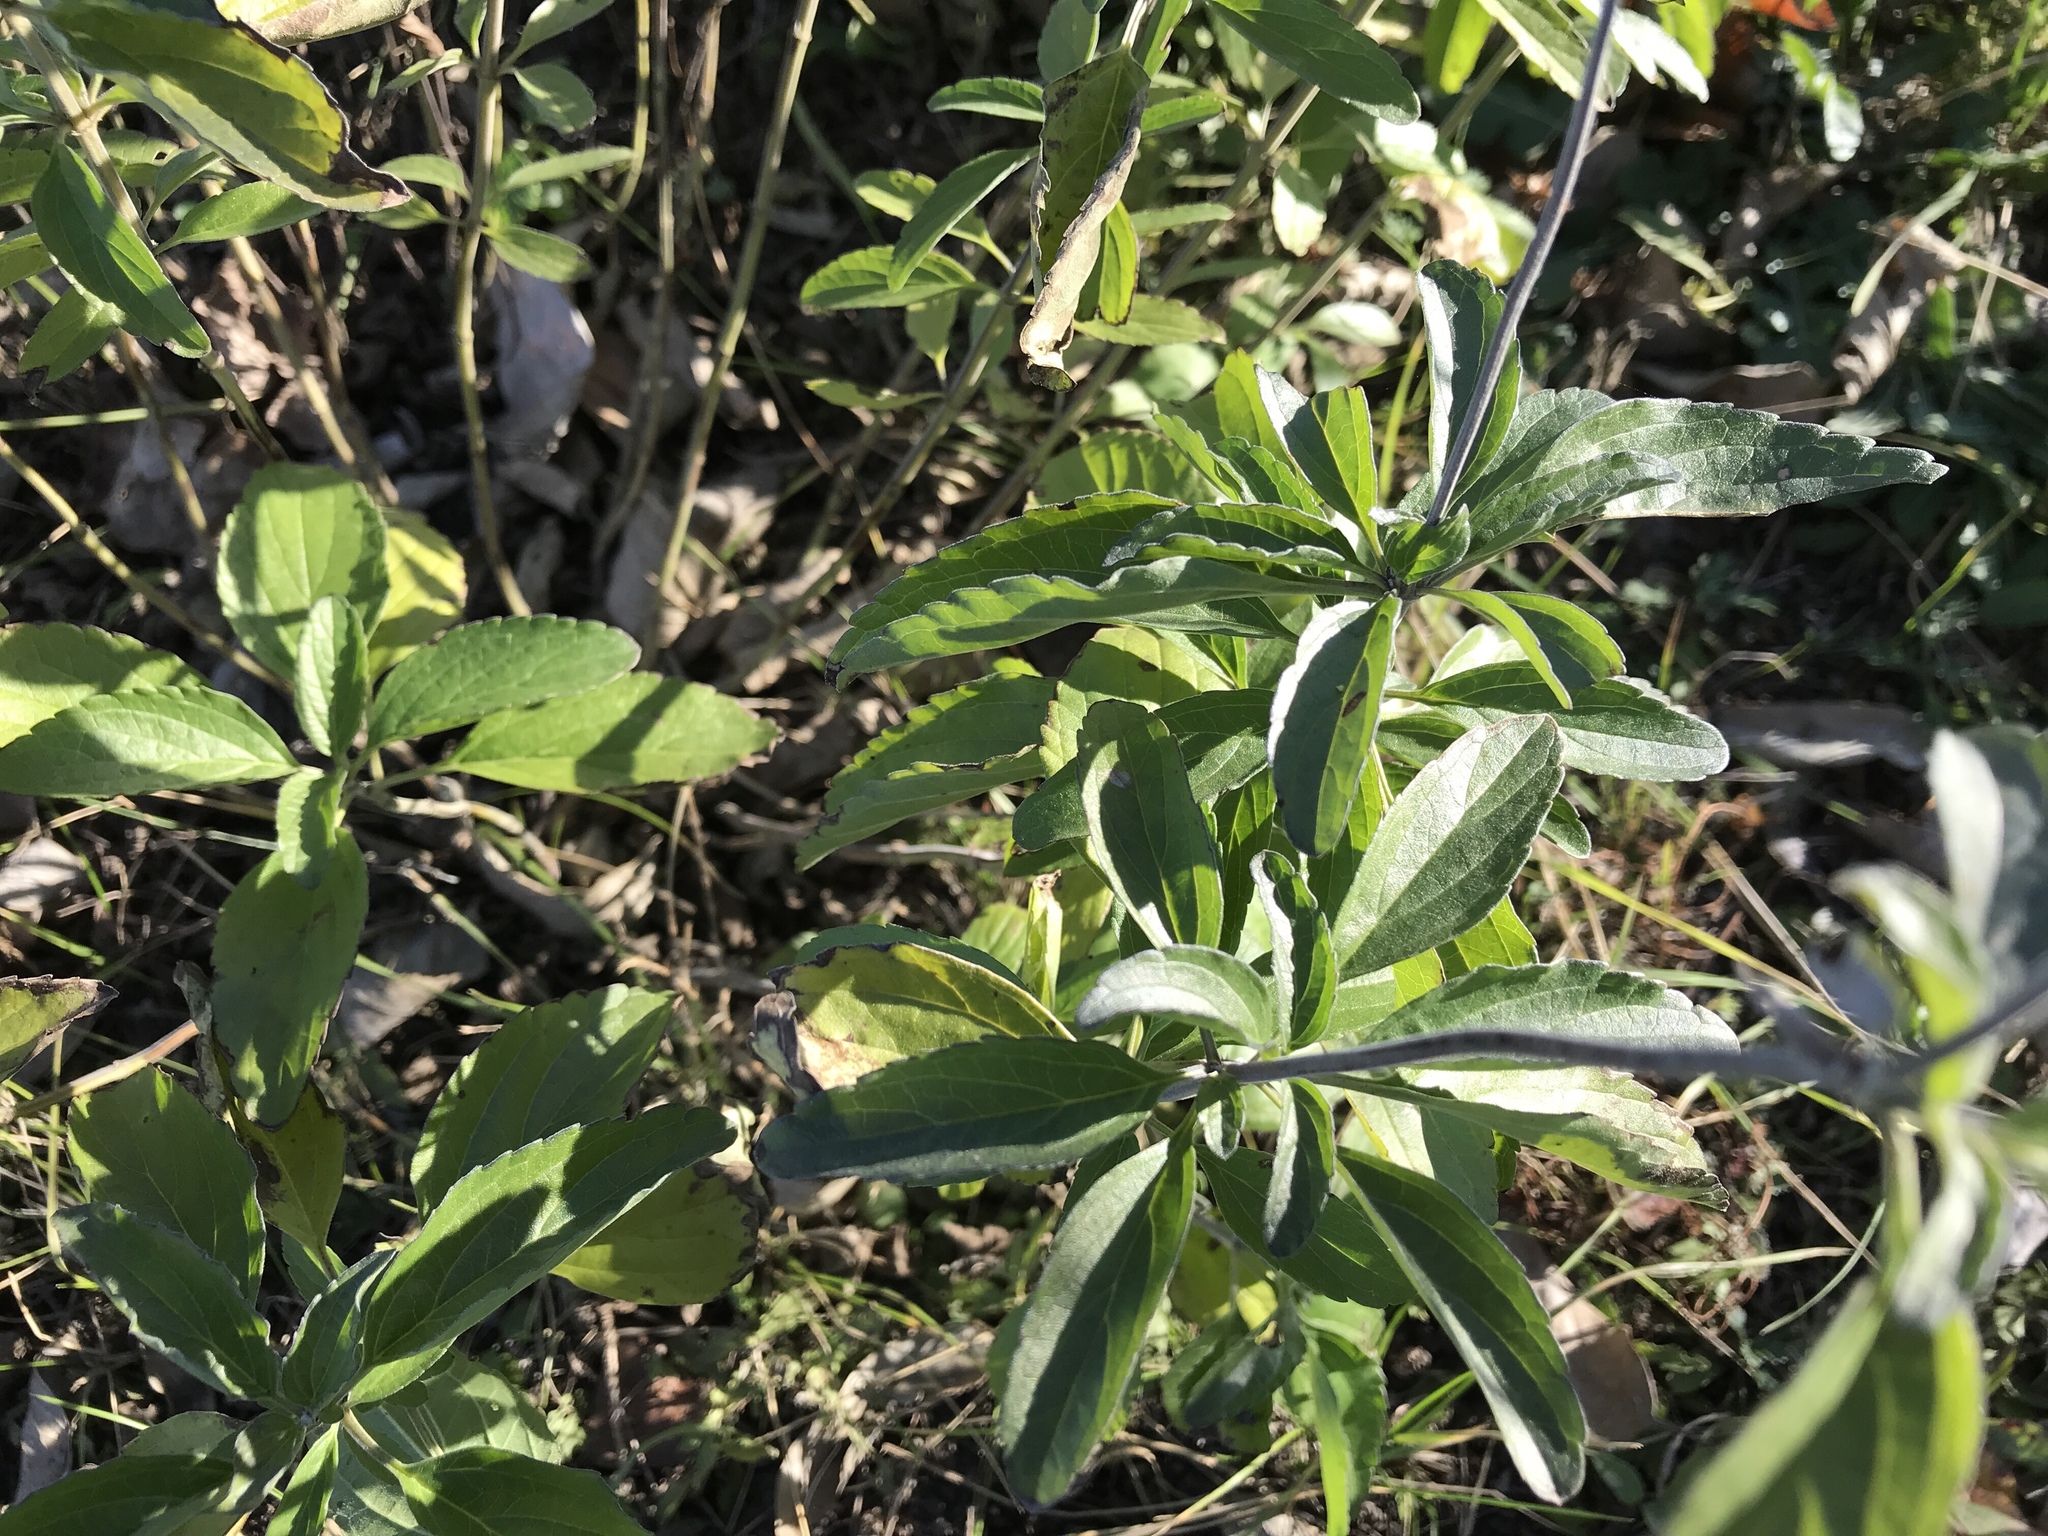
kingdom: Plantae
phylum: Tracheophyta
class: Magnoliopsida
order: Lamiales
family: Lamiaceae
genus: Salvia
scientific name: Salvia farinacea
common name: Mealy sage
